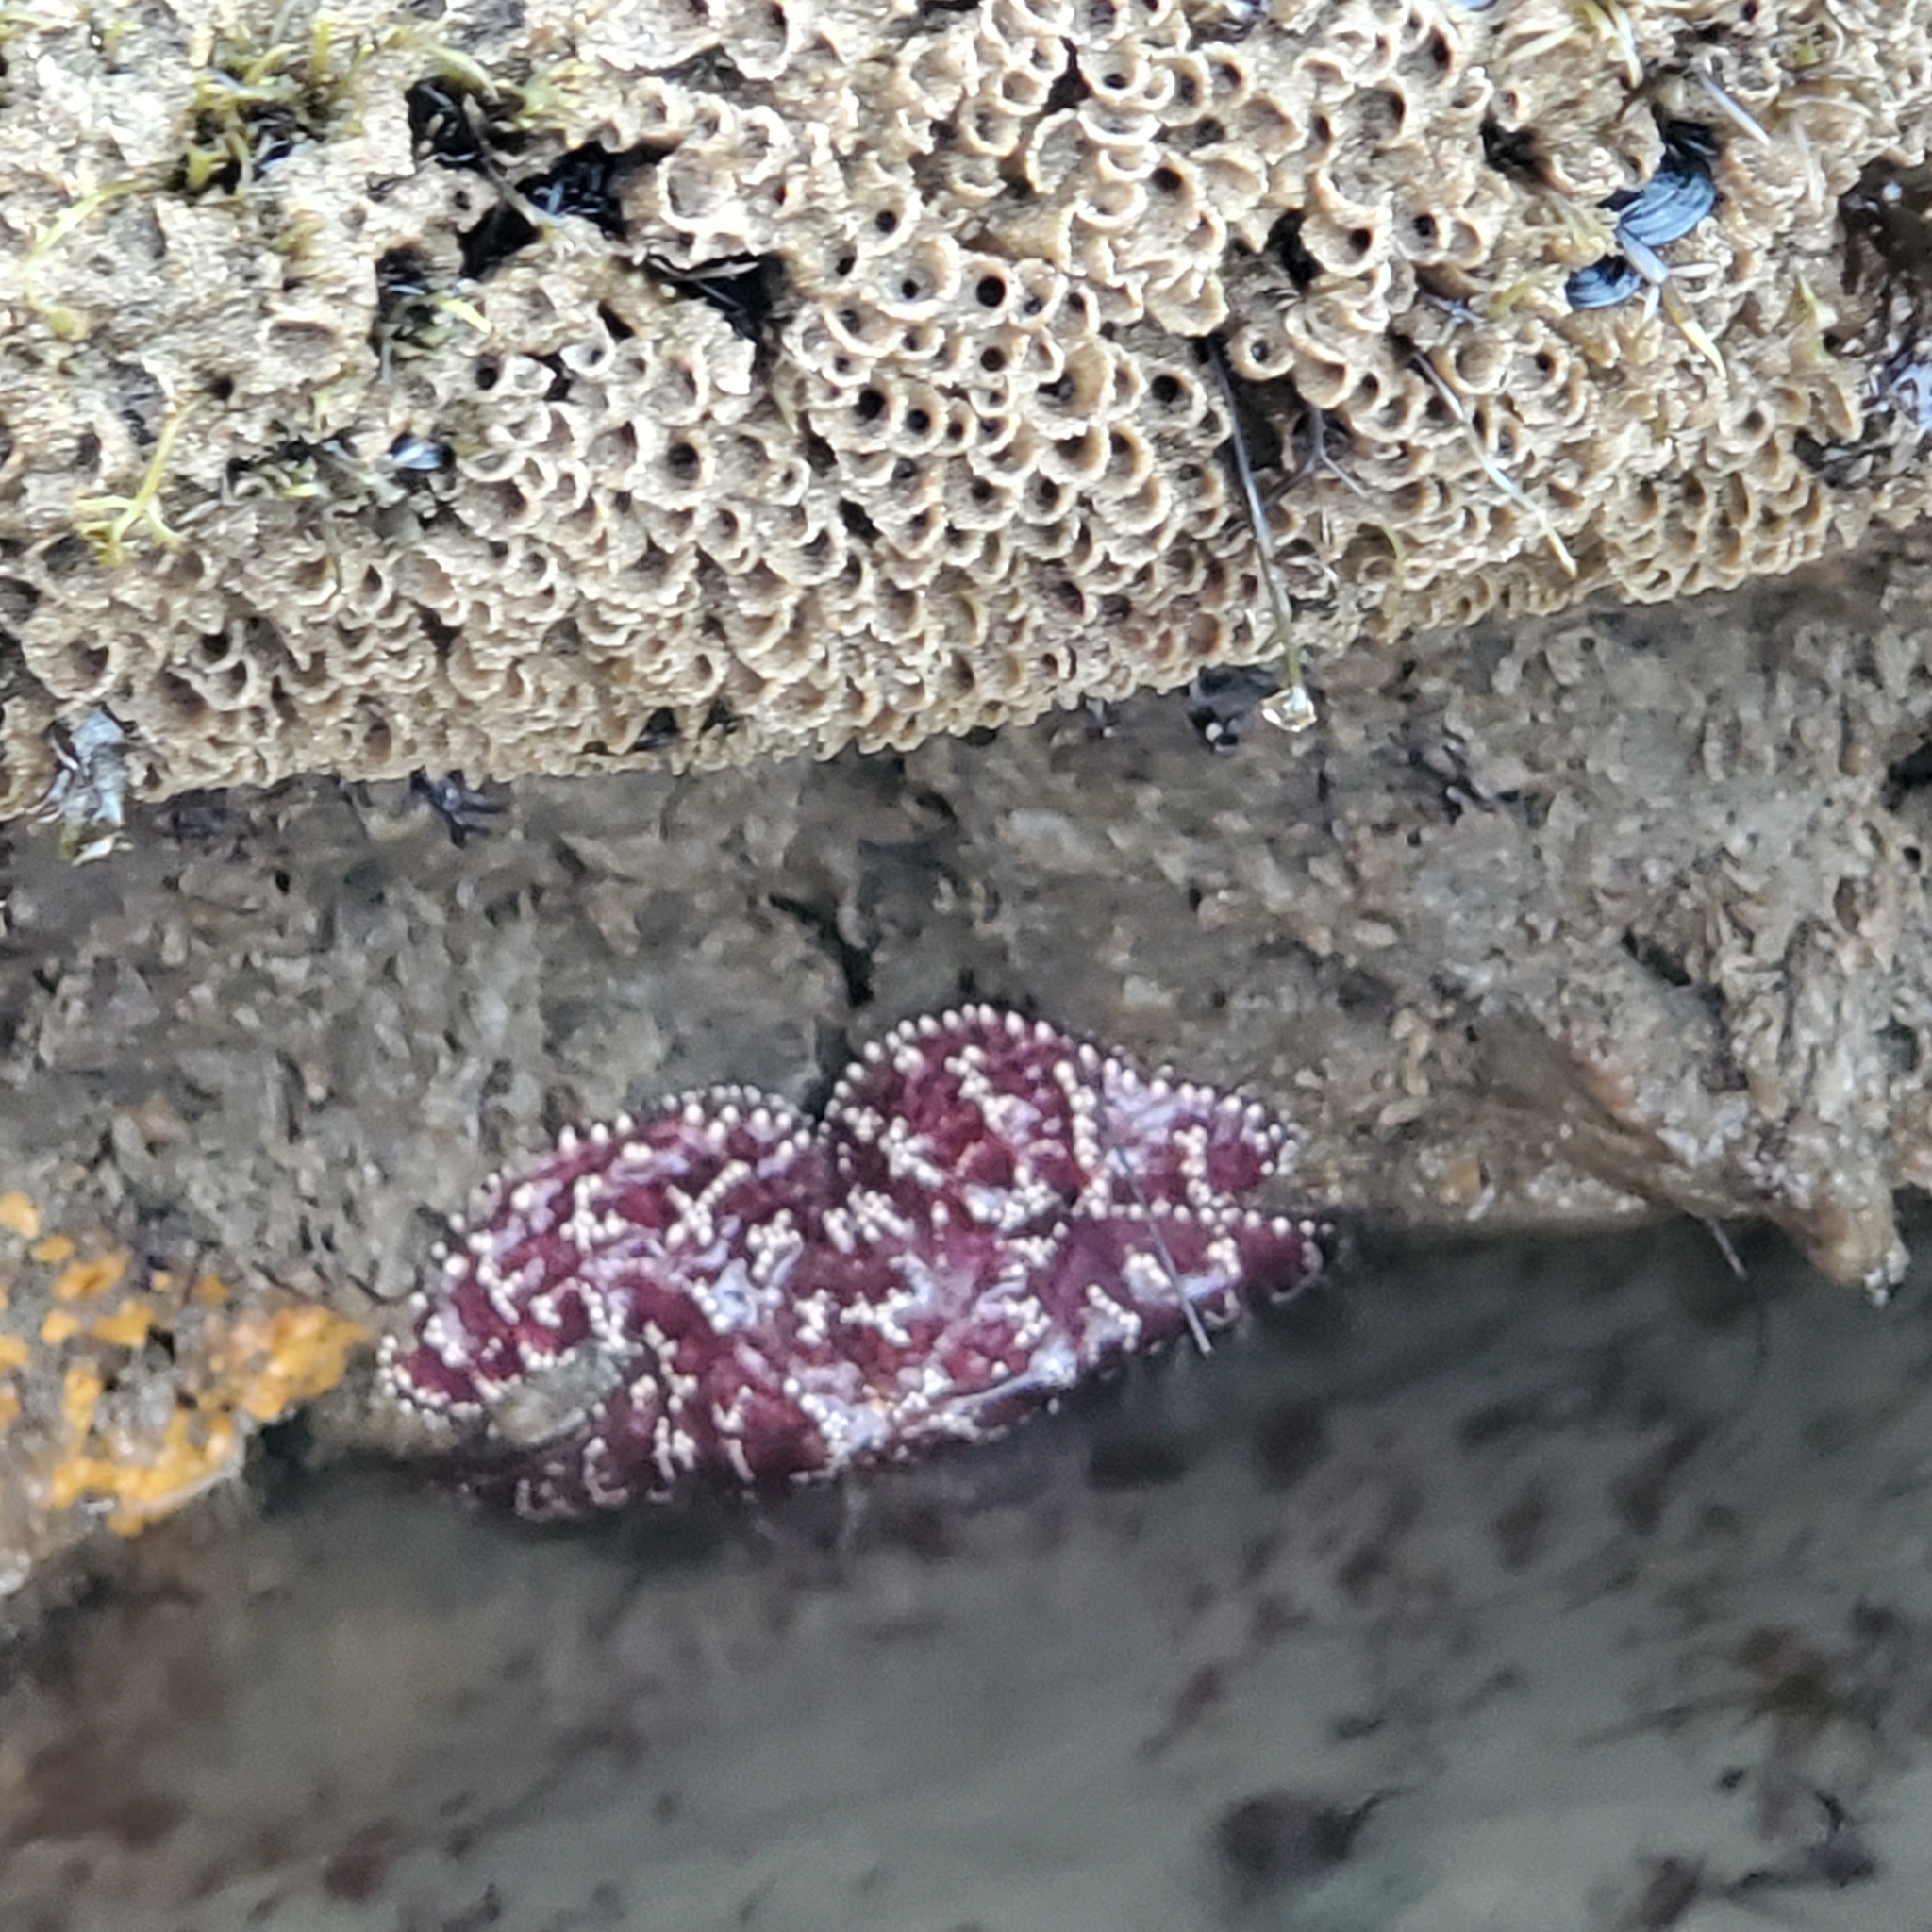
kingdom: Animalia
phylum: Echinodermata
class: Asteroidea
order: Forcipulatida
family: Asteriidae
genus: Pisaster
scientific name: Pisaster ochraceus
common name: Ochre stars
